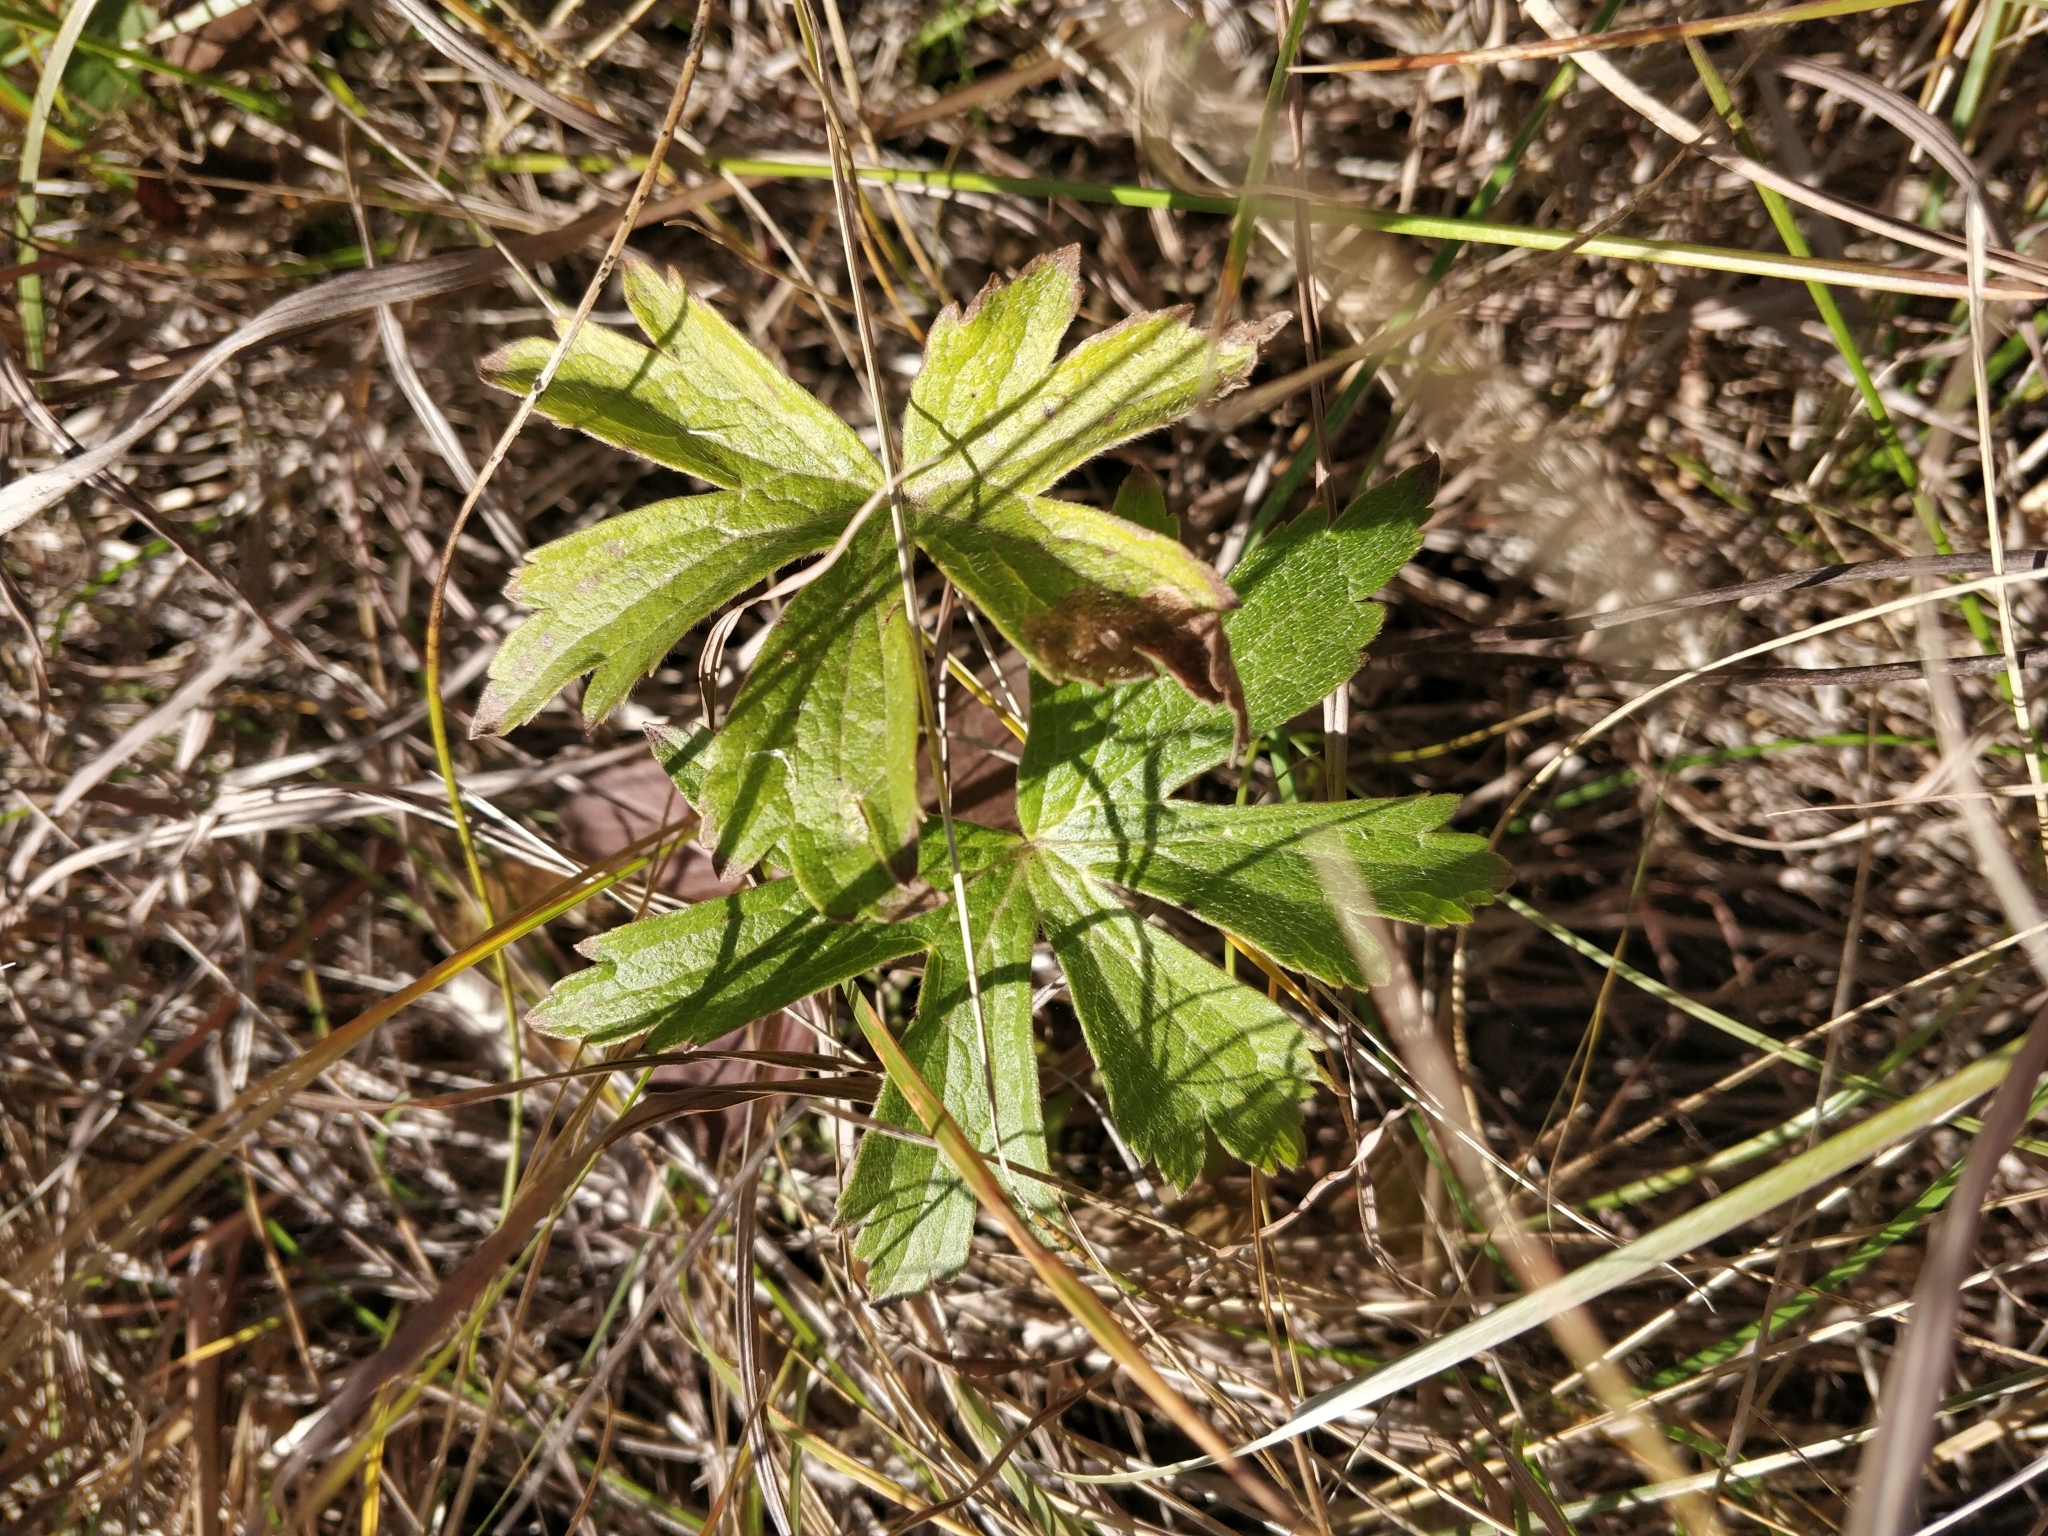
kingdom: Plantae
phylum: Tracheophyta
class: Magnoliopsida
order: Ranunculales
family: Ranunculaceae
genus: Anemonastrum
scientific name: Anemonastrum canadense
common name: Canada anemone
